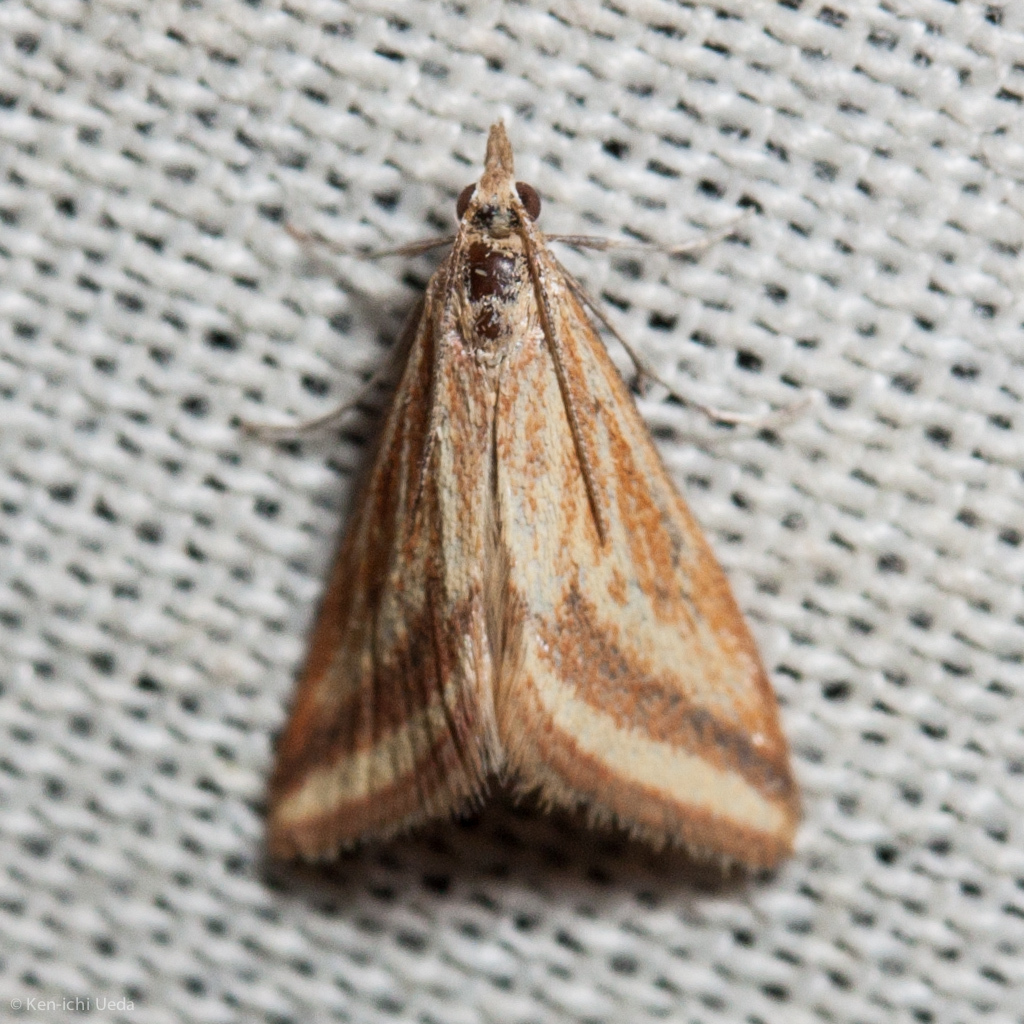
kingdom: Animalia
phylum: Arthropoda
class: Insecta
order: Lepidoptera
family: Crambidae
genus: Microtheoris
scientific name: Microtheoris ophionalis
